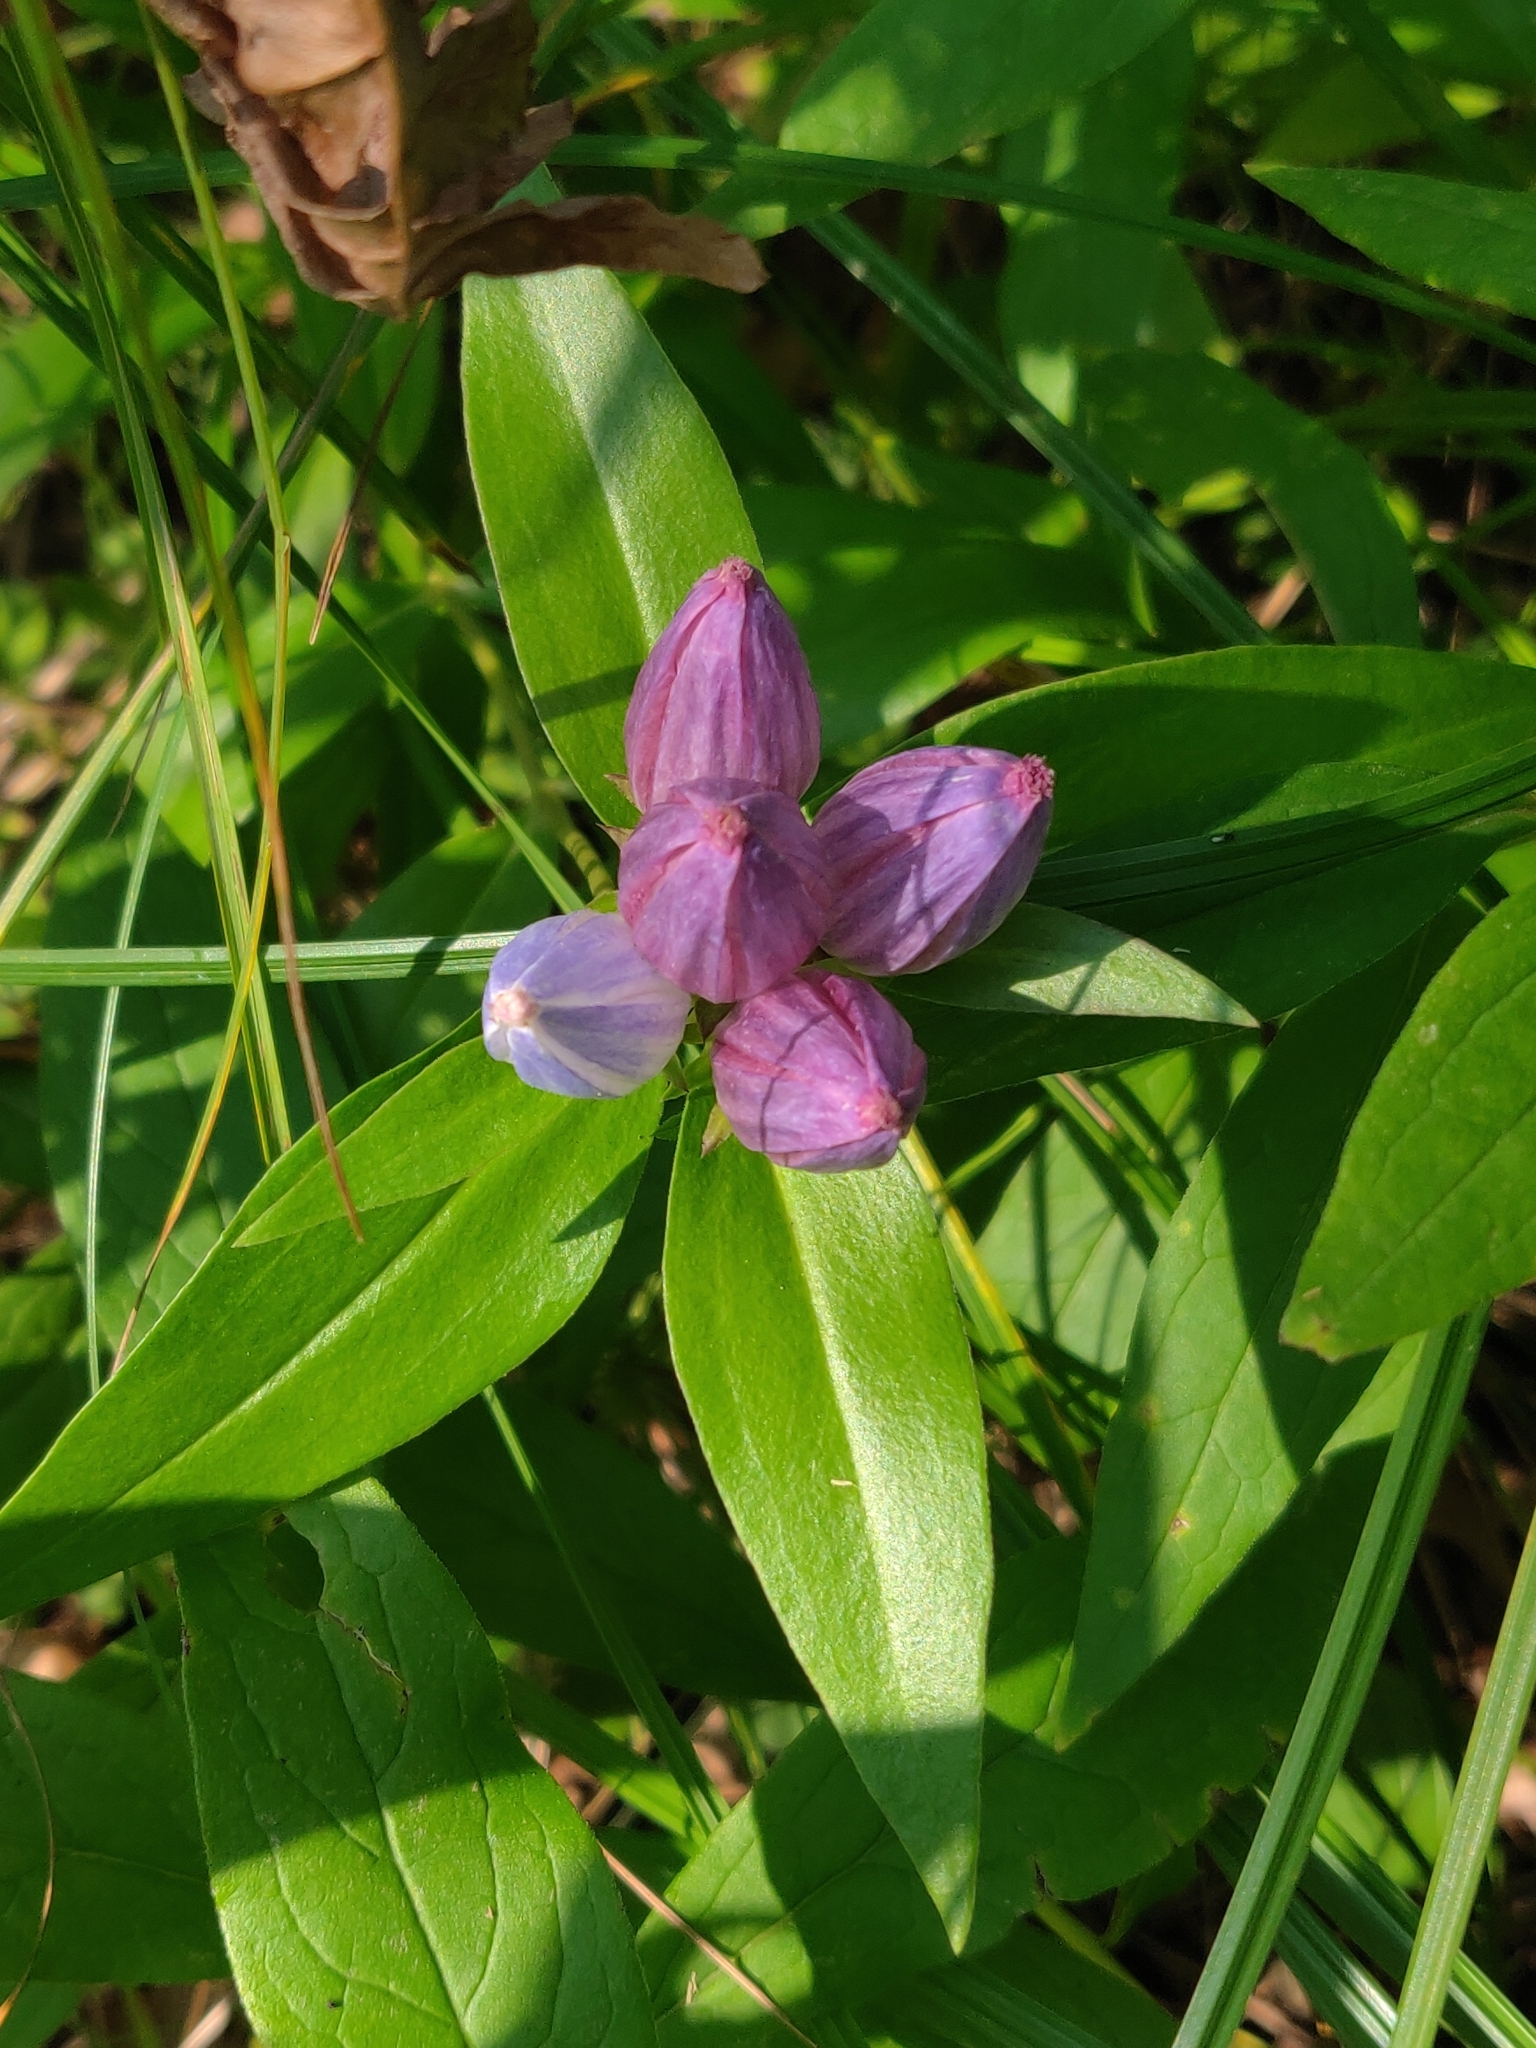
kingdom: Plantae
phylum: Tracheophyta
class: Magnoliopsida
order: Gentianales
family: Gentianaceae
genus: Gentiana
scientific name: Gentiana andrewsii
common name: Bottle gentian
